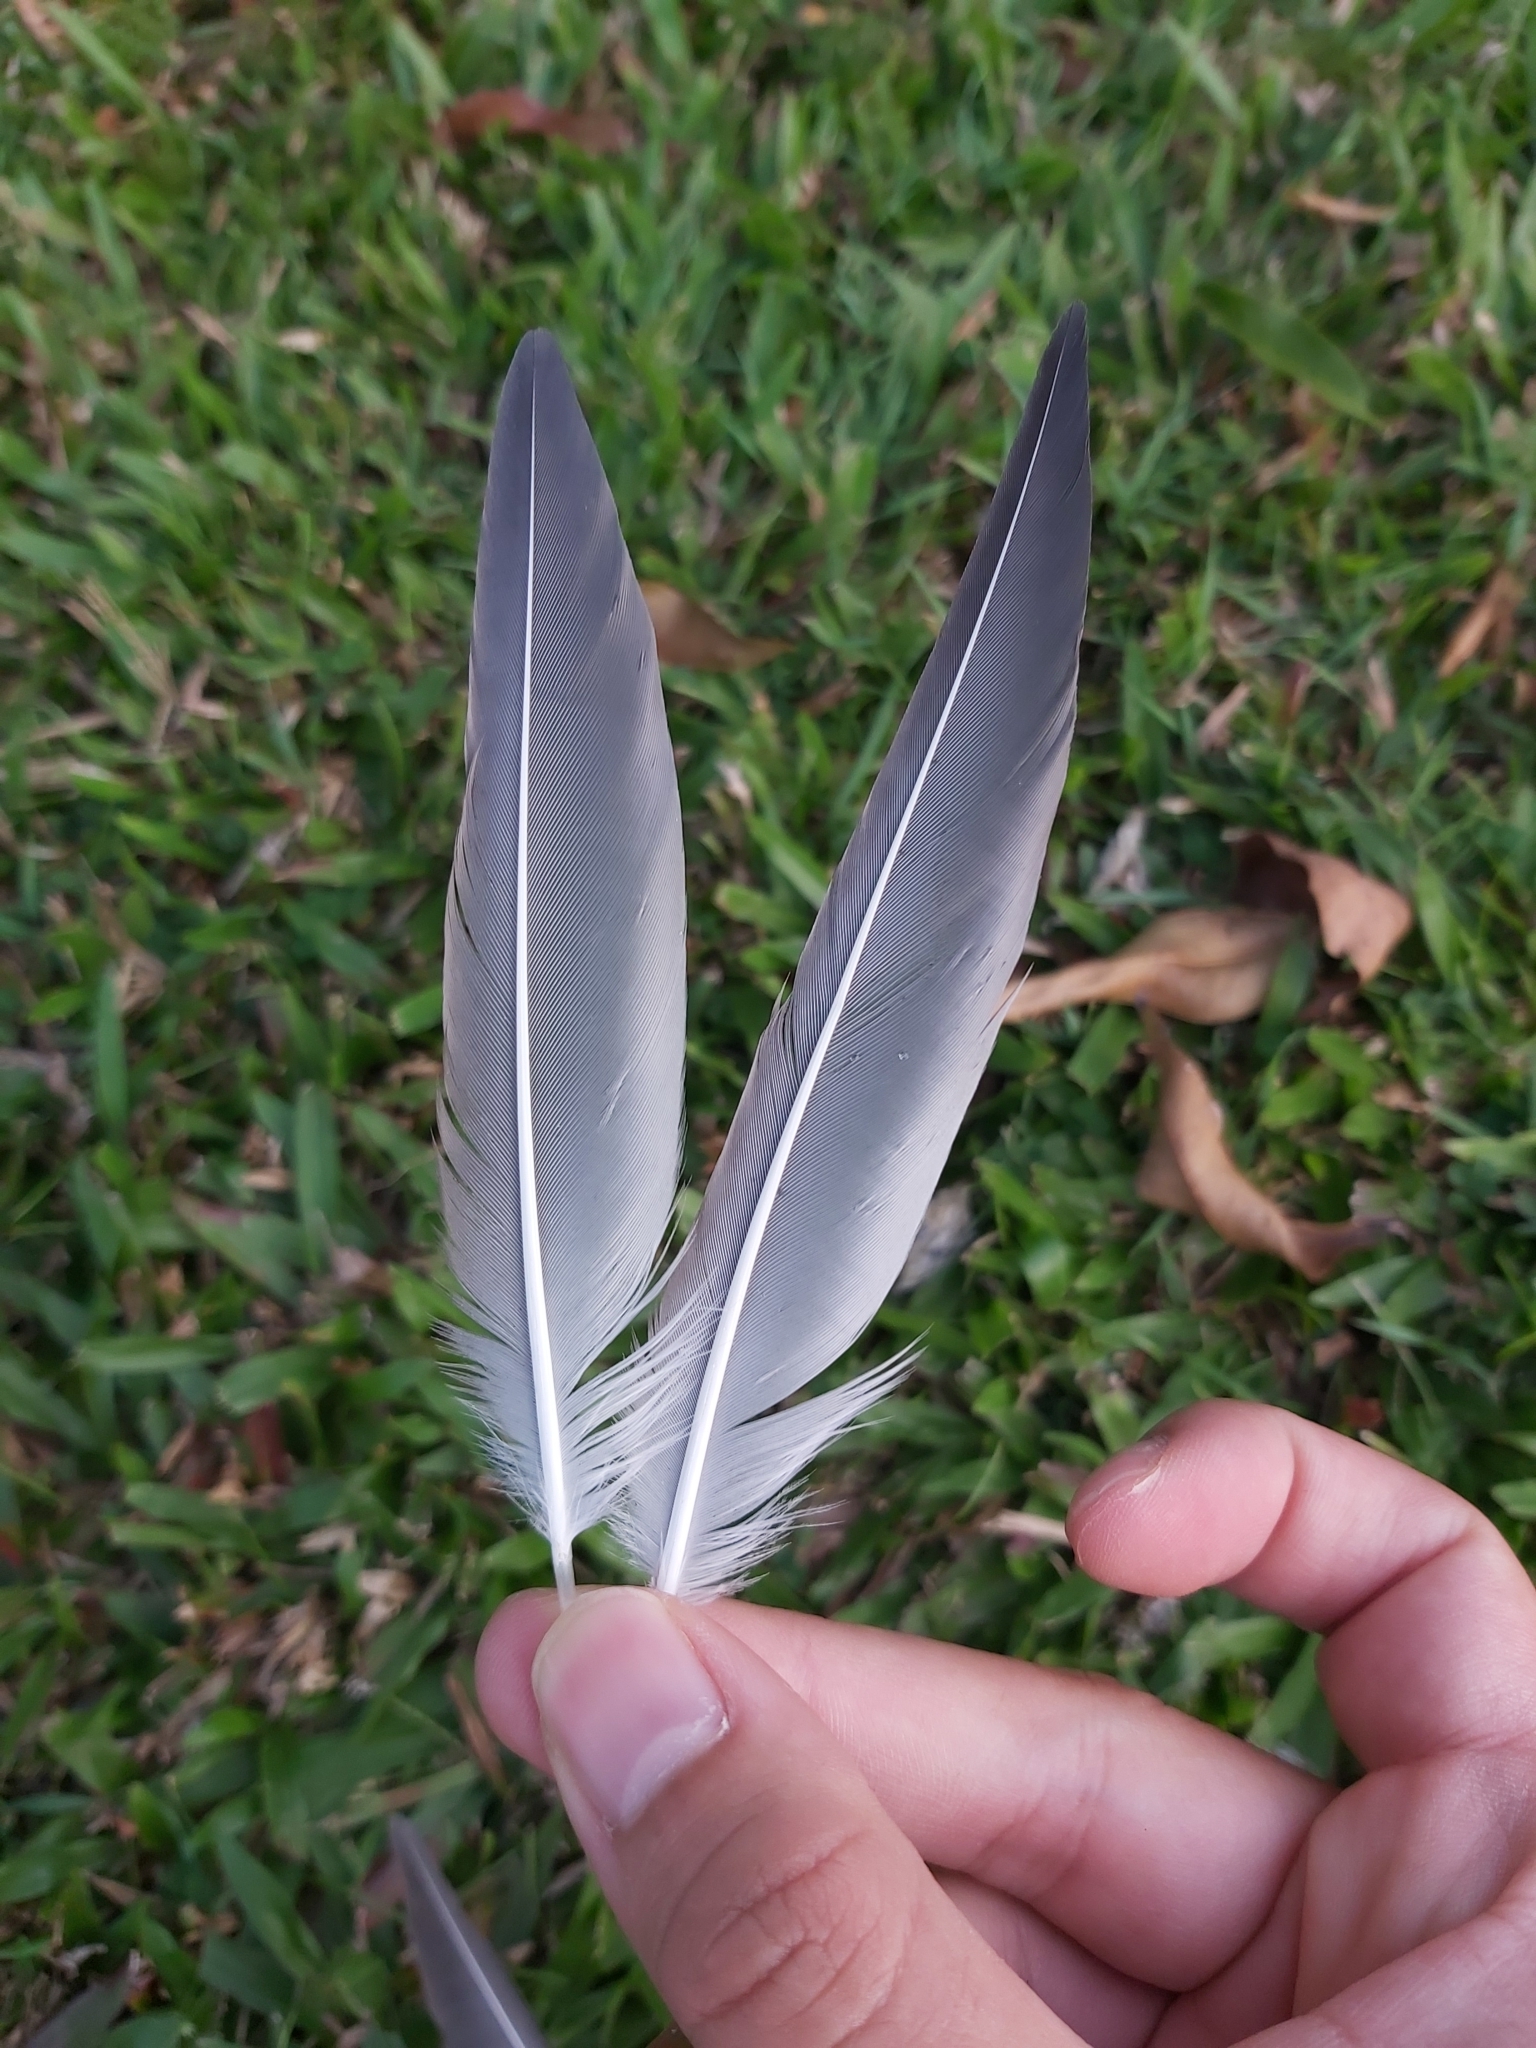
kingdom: Animalia
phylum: Chordata
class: Aves
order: Charadriiformes
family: Laridae
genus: Onychoprion
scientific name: Onychoprion fuscatus
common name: Sooty tern
